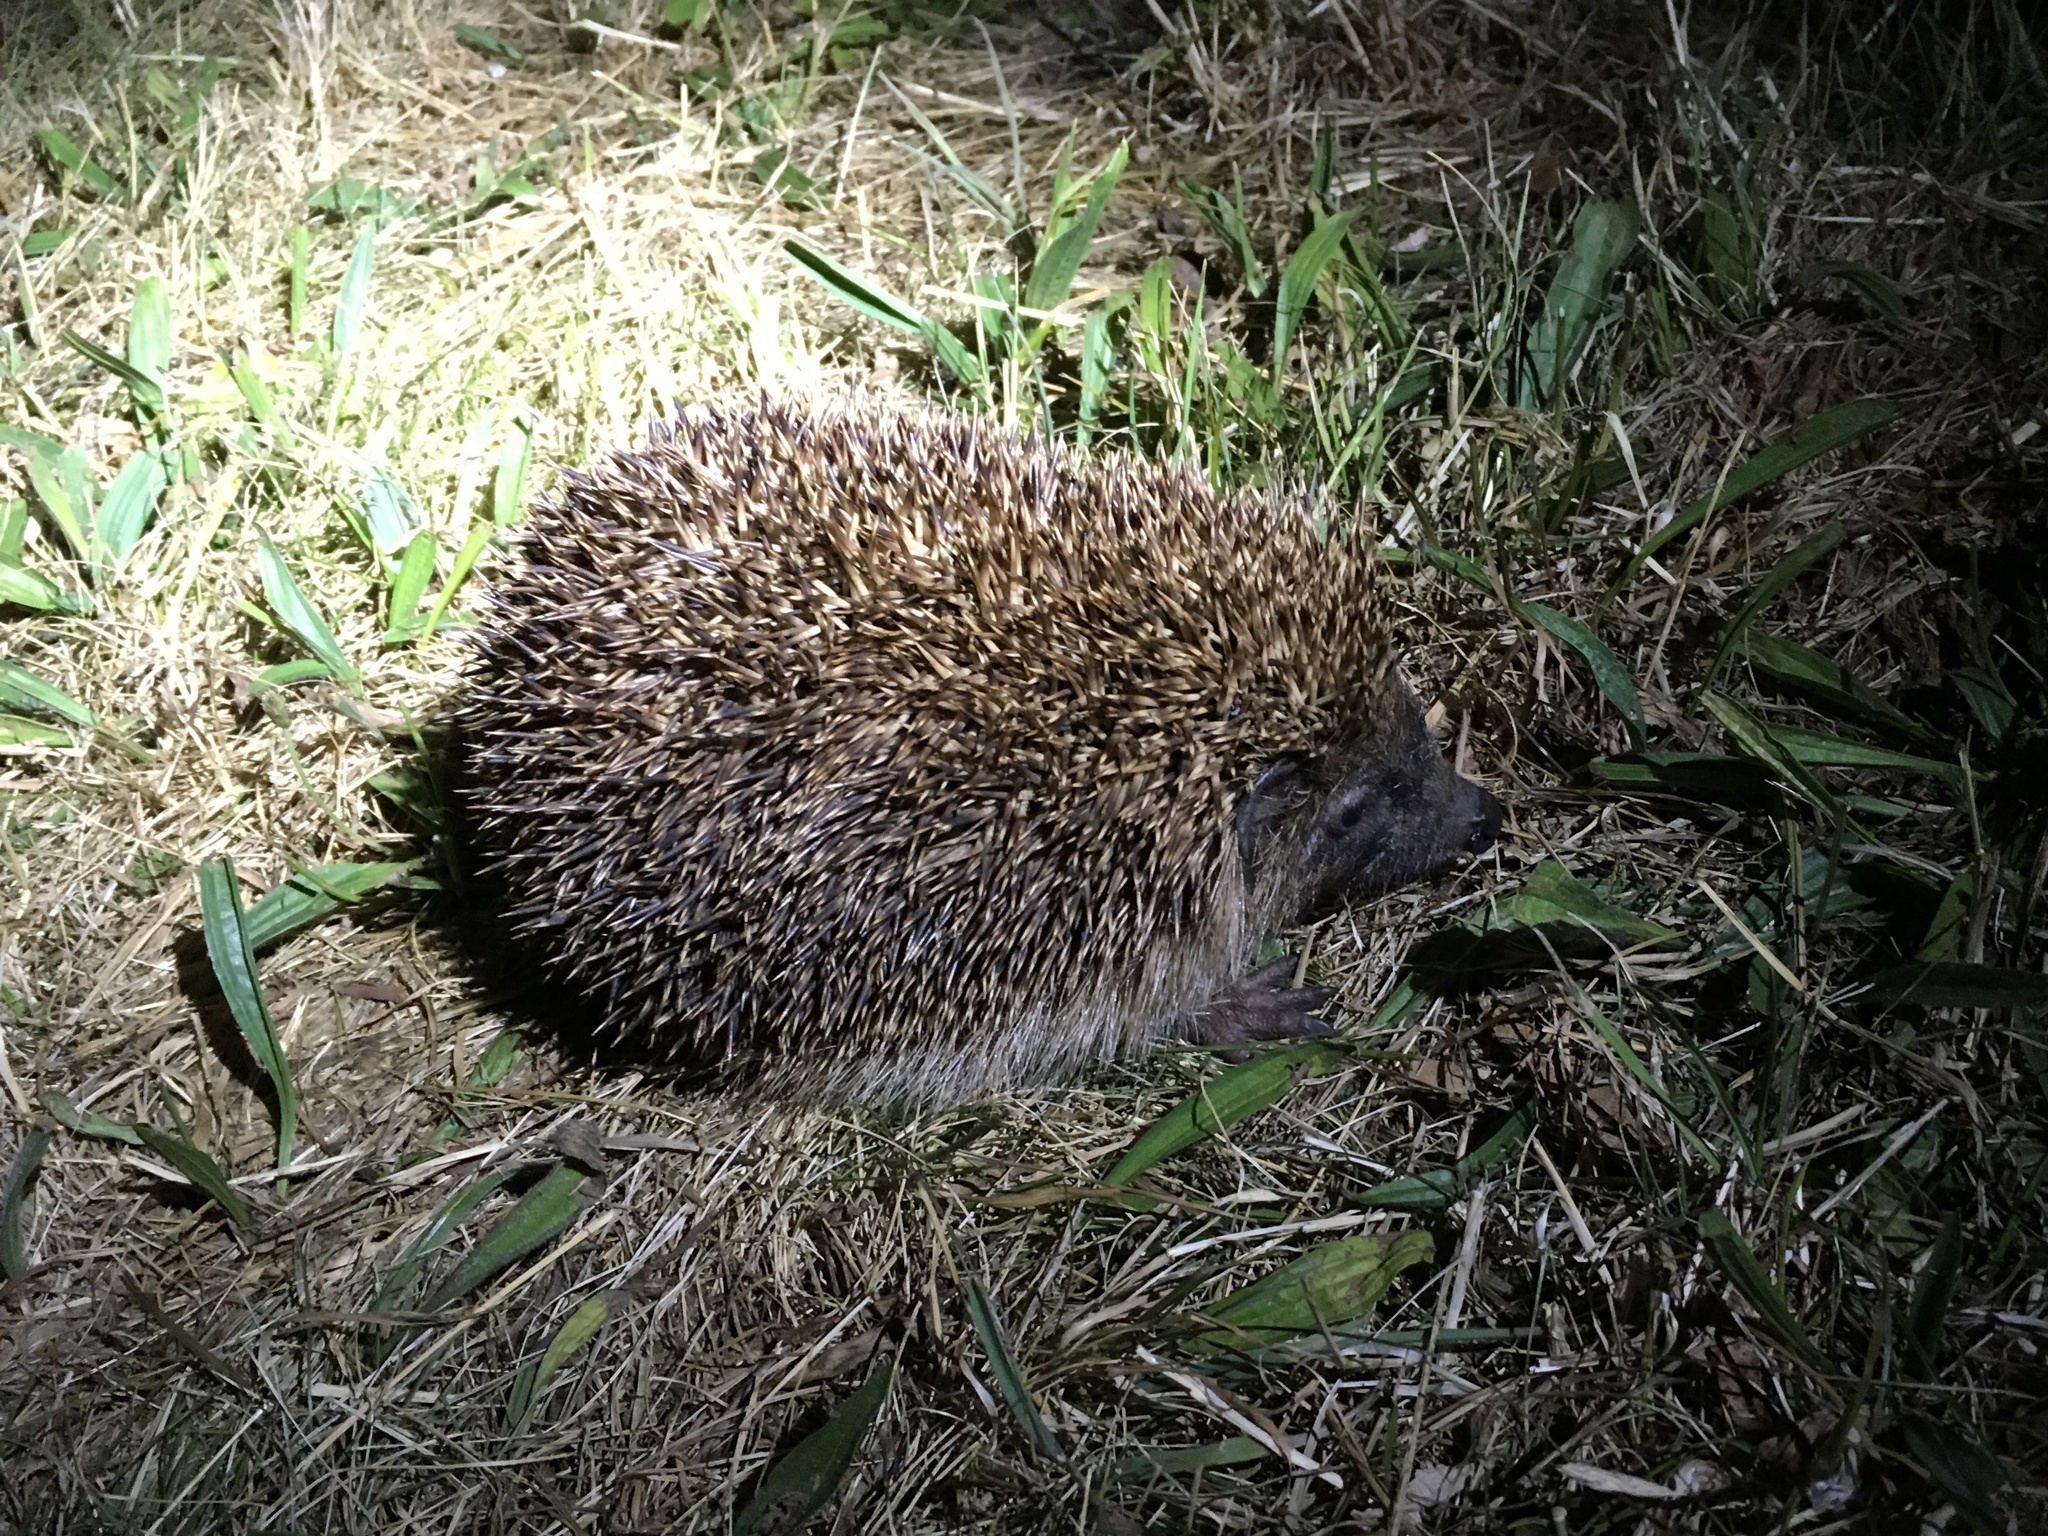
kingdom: Animalia
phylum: Chordata
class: Mammalia
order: Erinaceomorpha
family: Erinaceidae
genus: Erinaceus
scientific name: Erinaceus europaeus
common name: West european hedgehog
